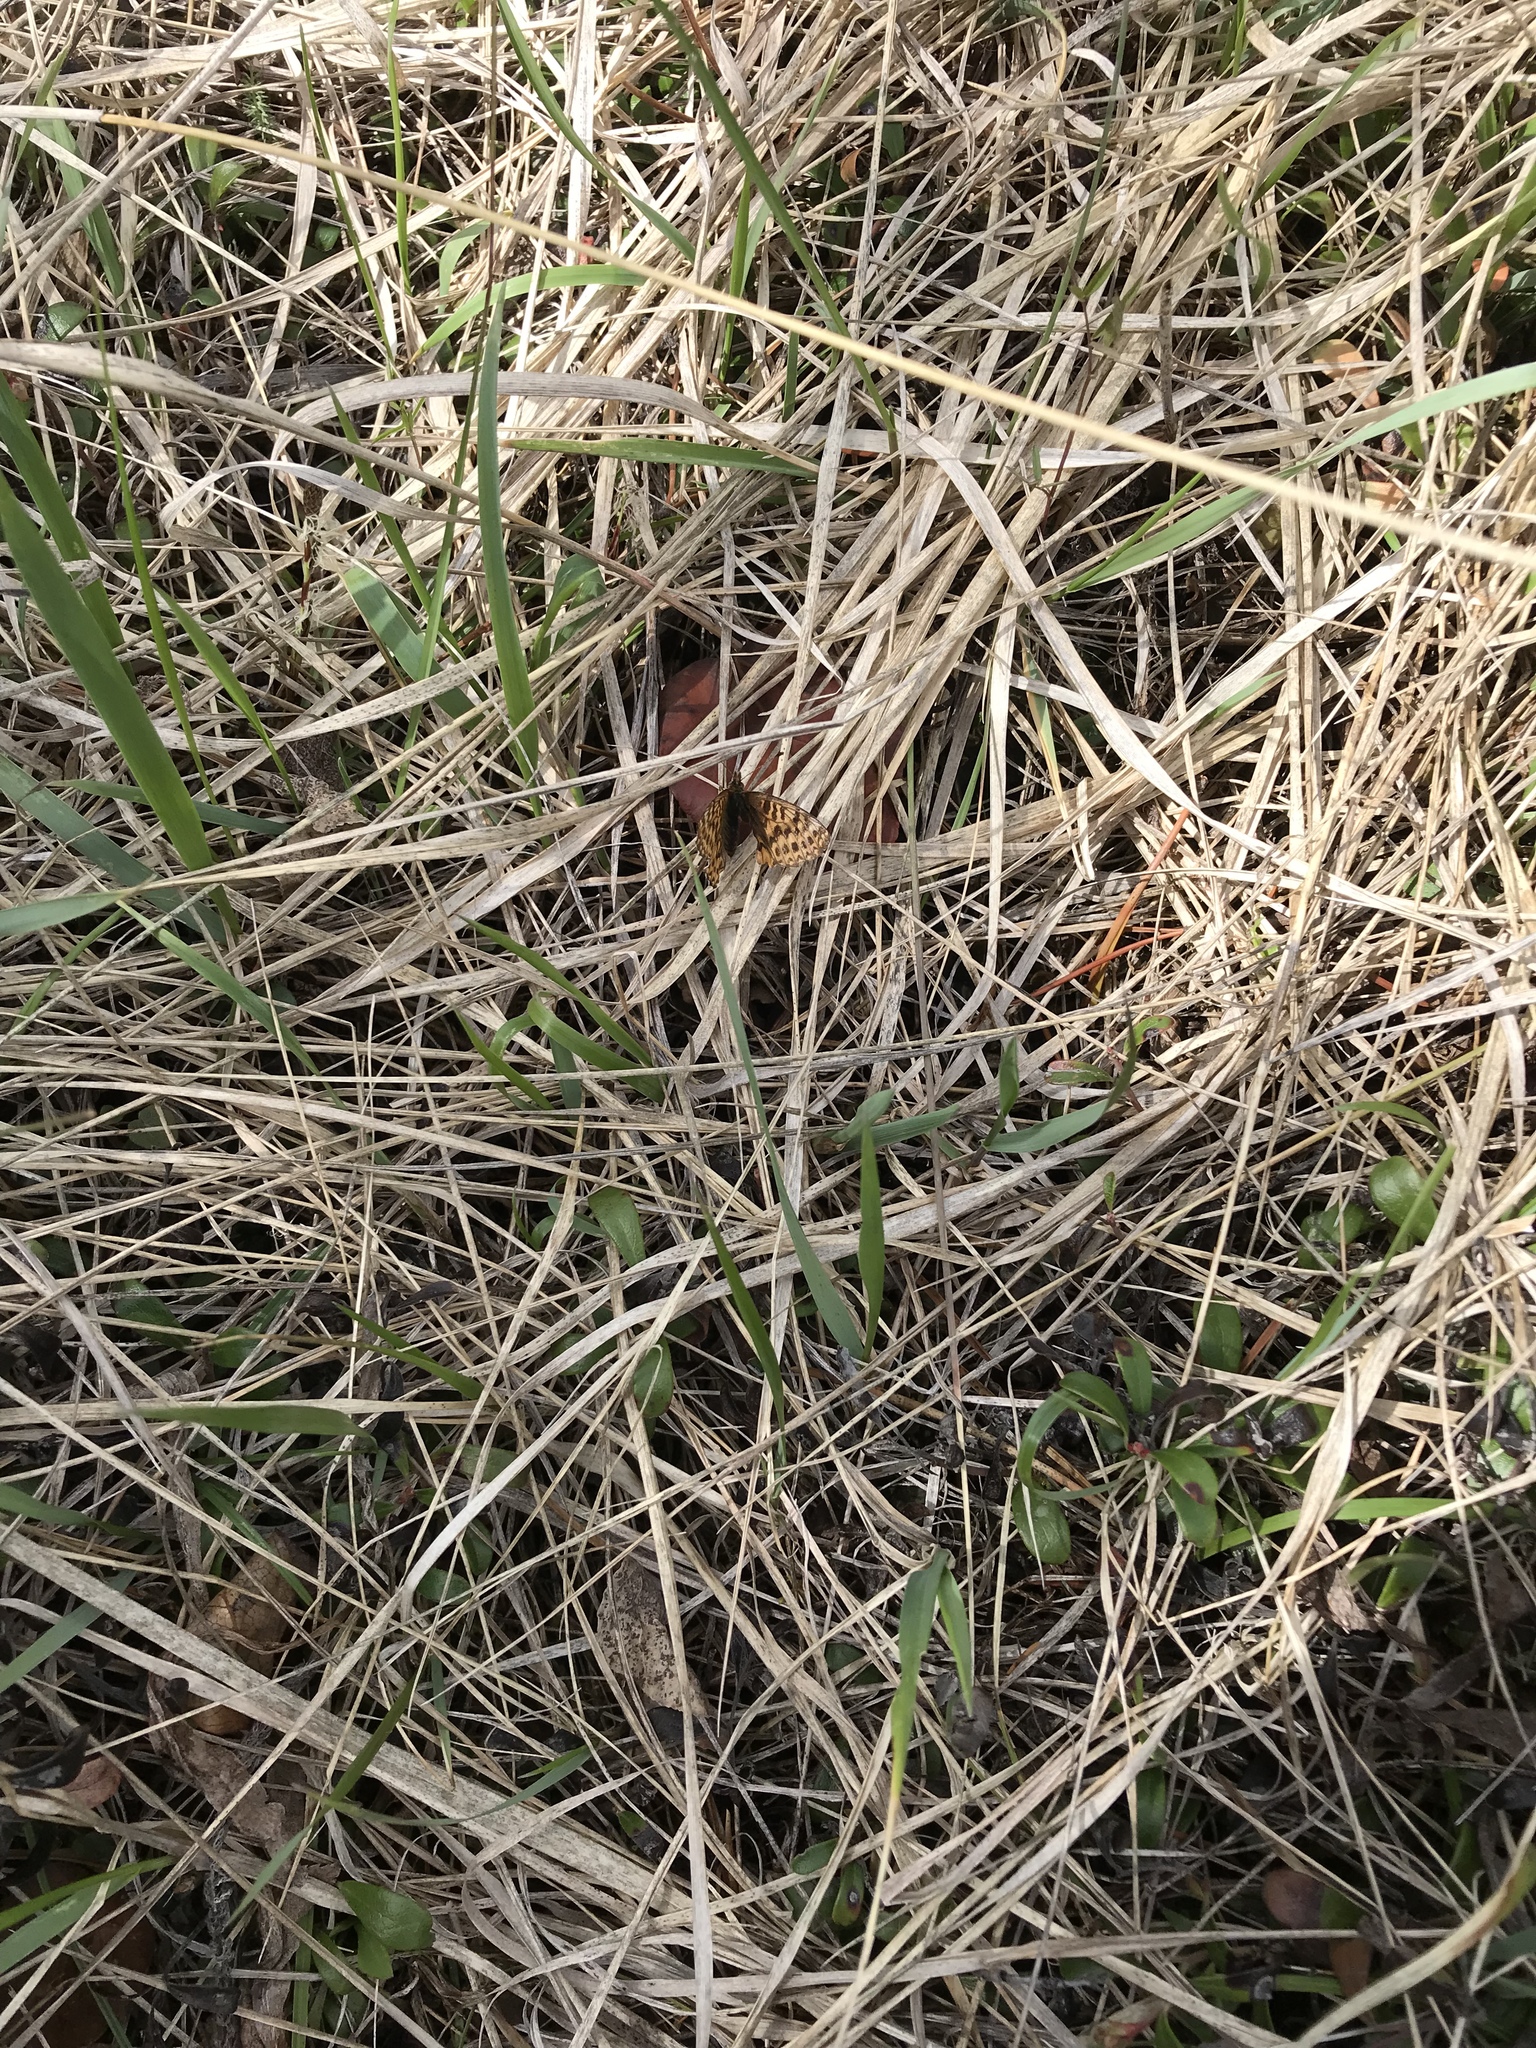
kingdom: Animalia
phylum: Arthropoda
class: Insecta
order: Lepidoptera
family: Nymphalidae
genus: Boloria
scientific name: Boloria freija
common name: Freija fritillary
